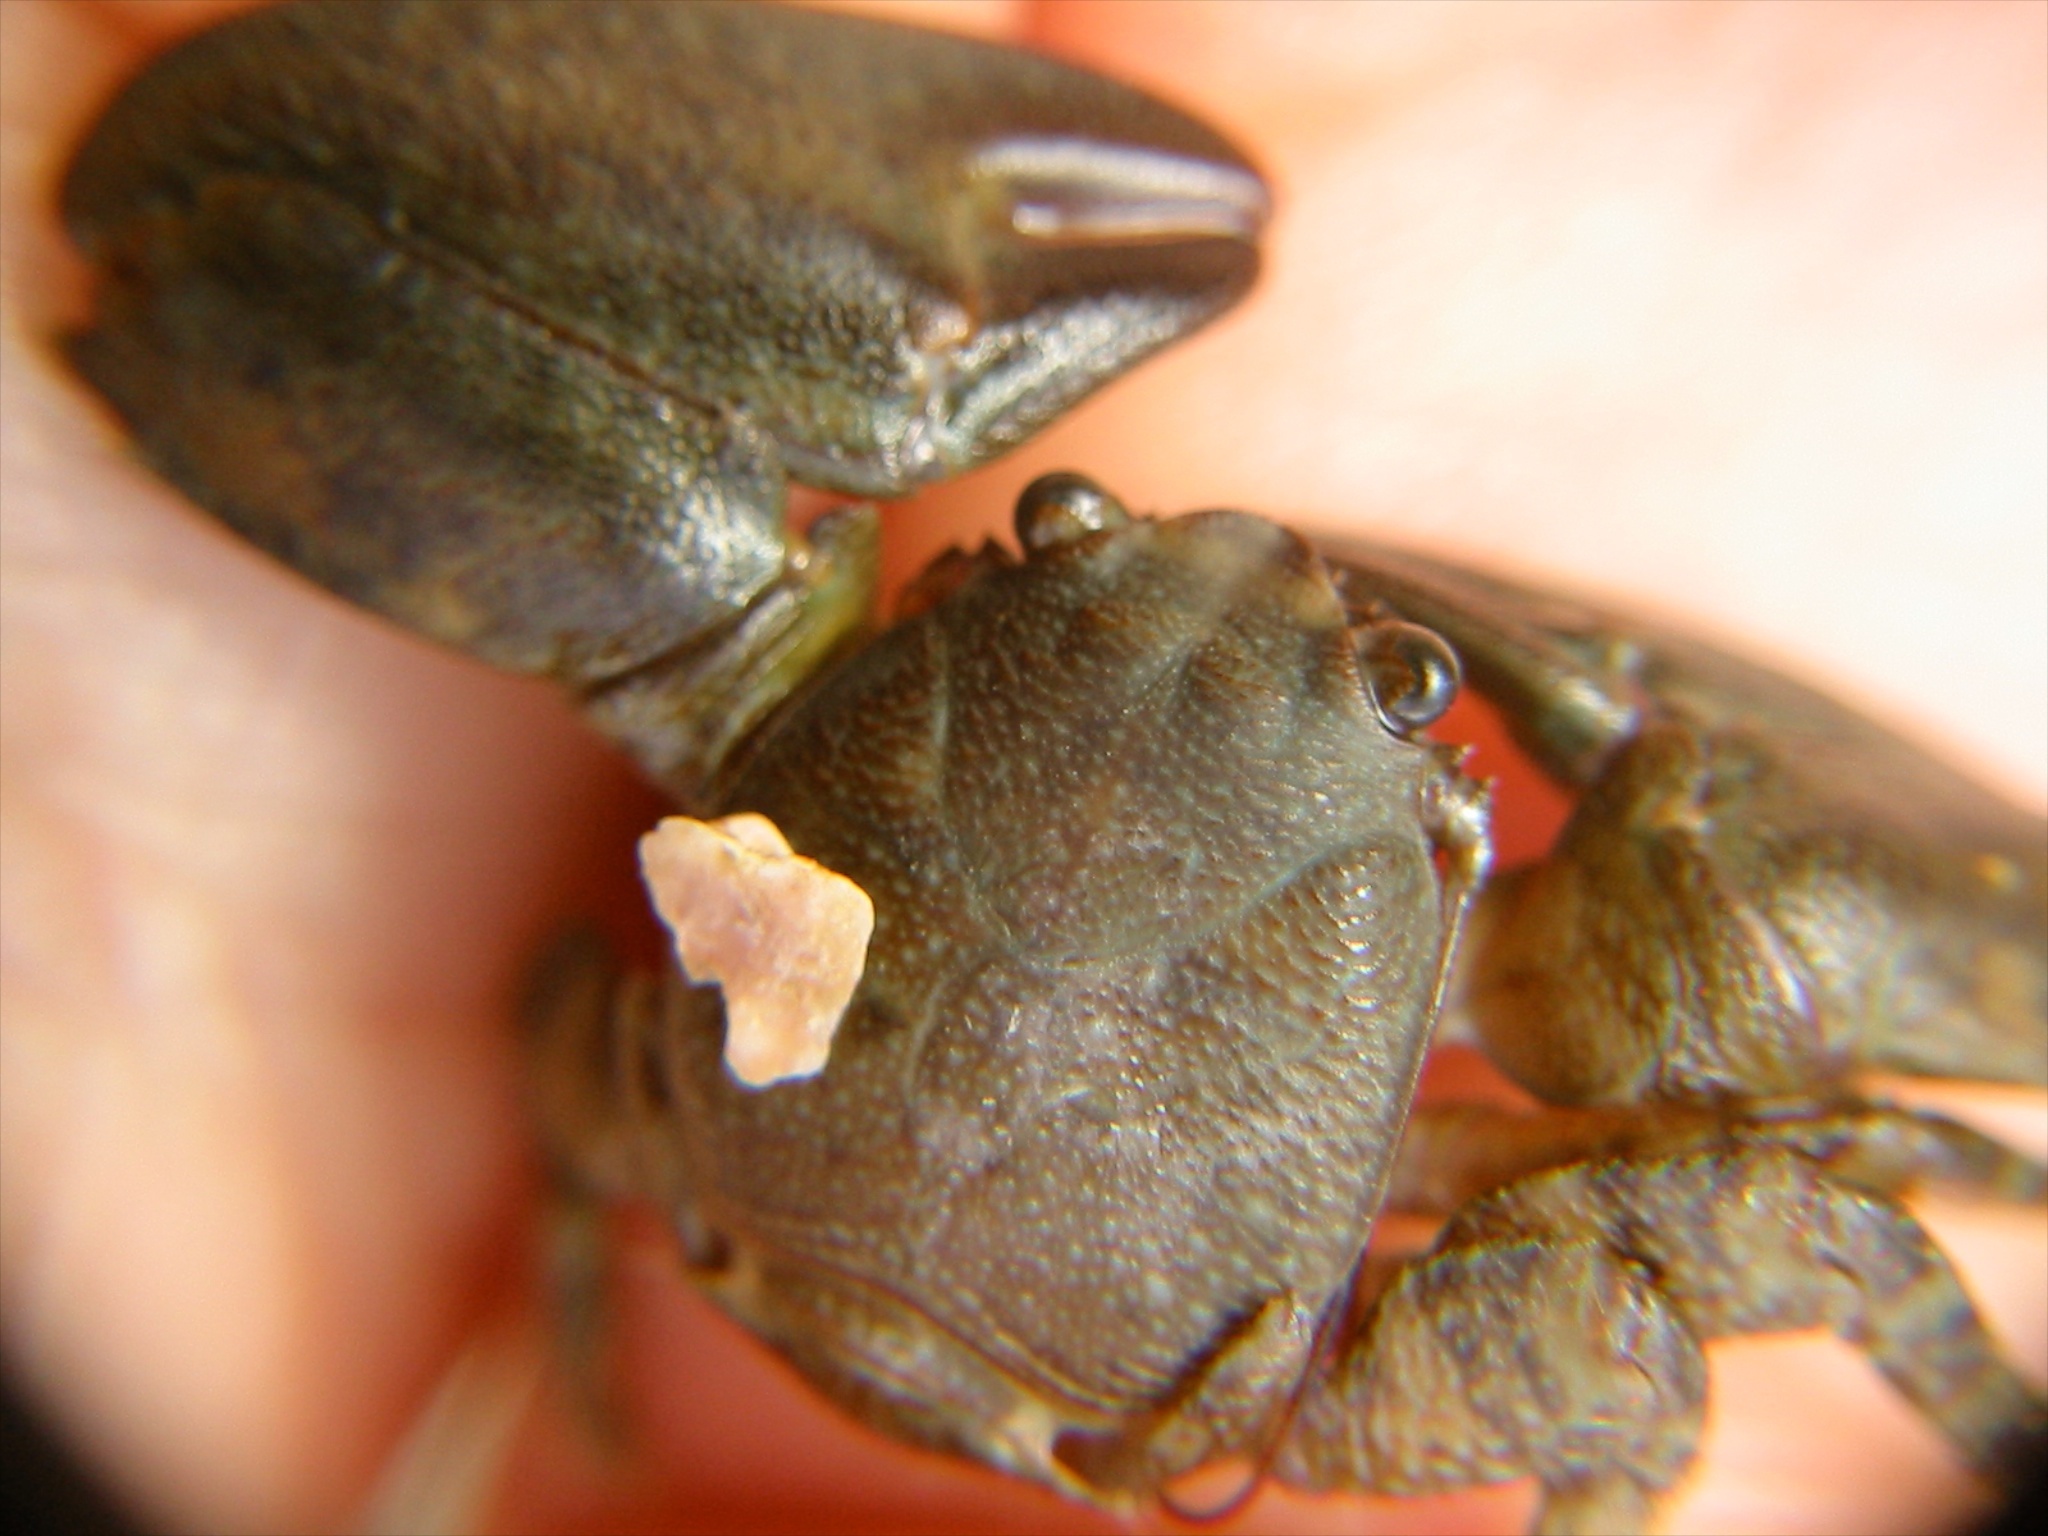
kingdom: Animalia
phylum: Arthropoda
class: Malacostraca
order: Decapoda
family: Porcellanidae
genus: Petrolisthes
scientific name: Petrolisthes elongatus
